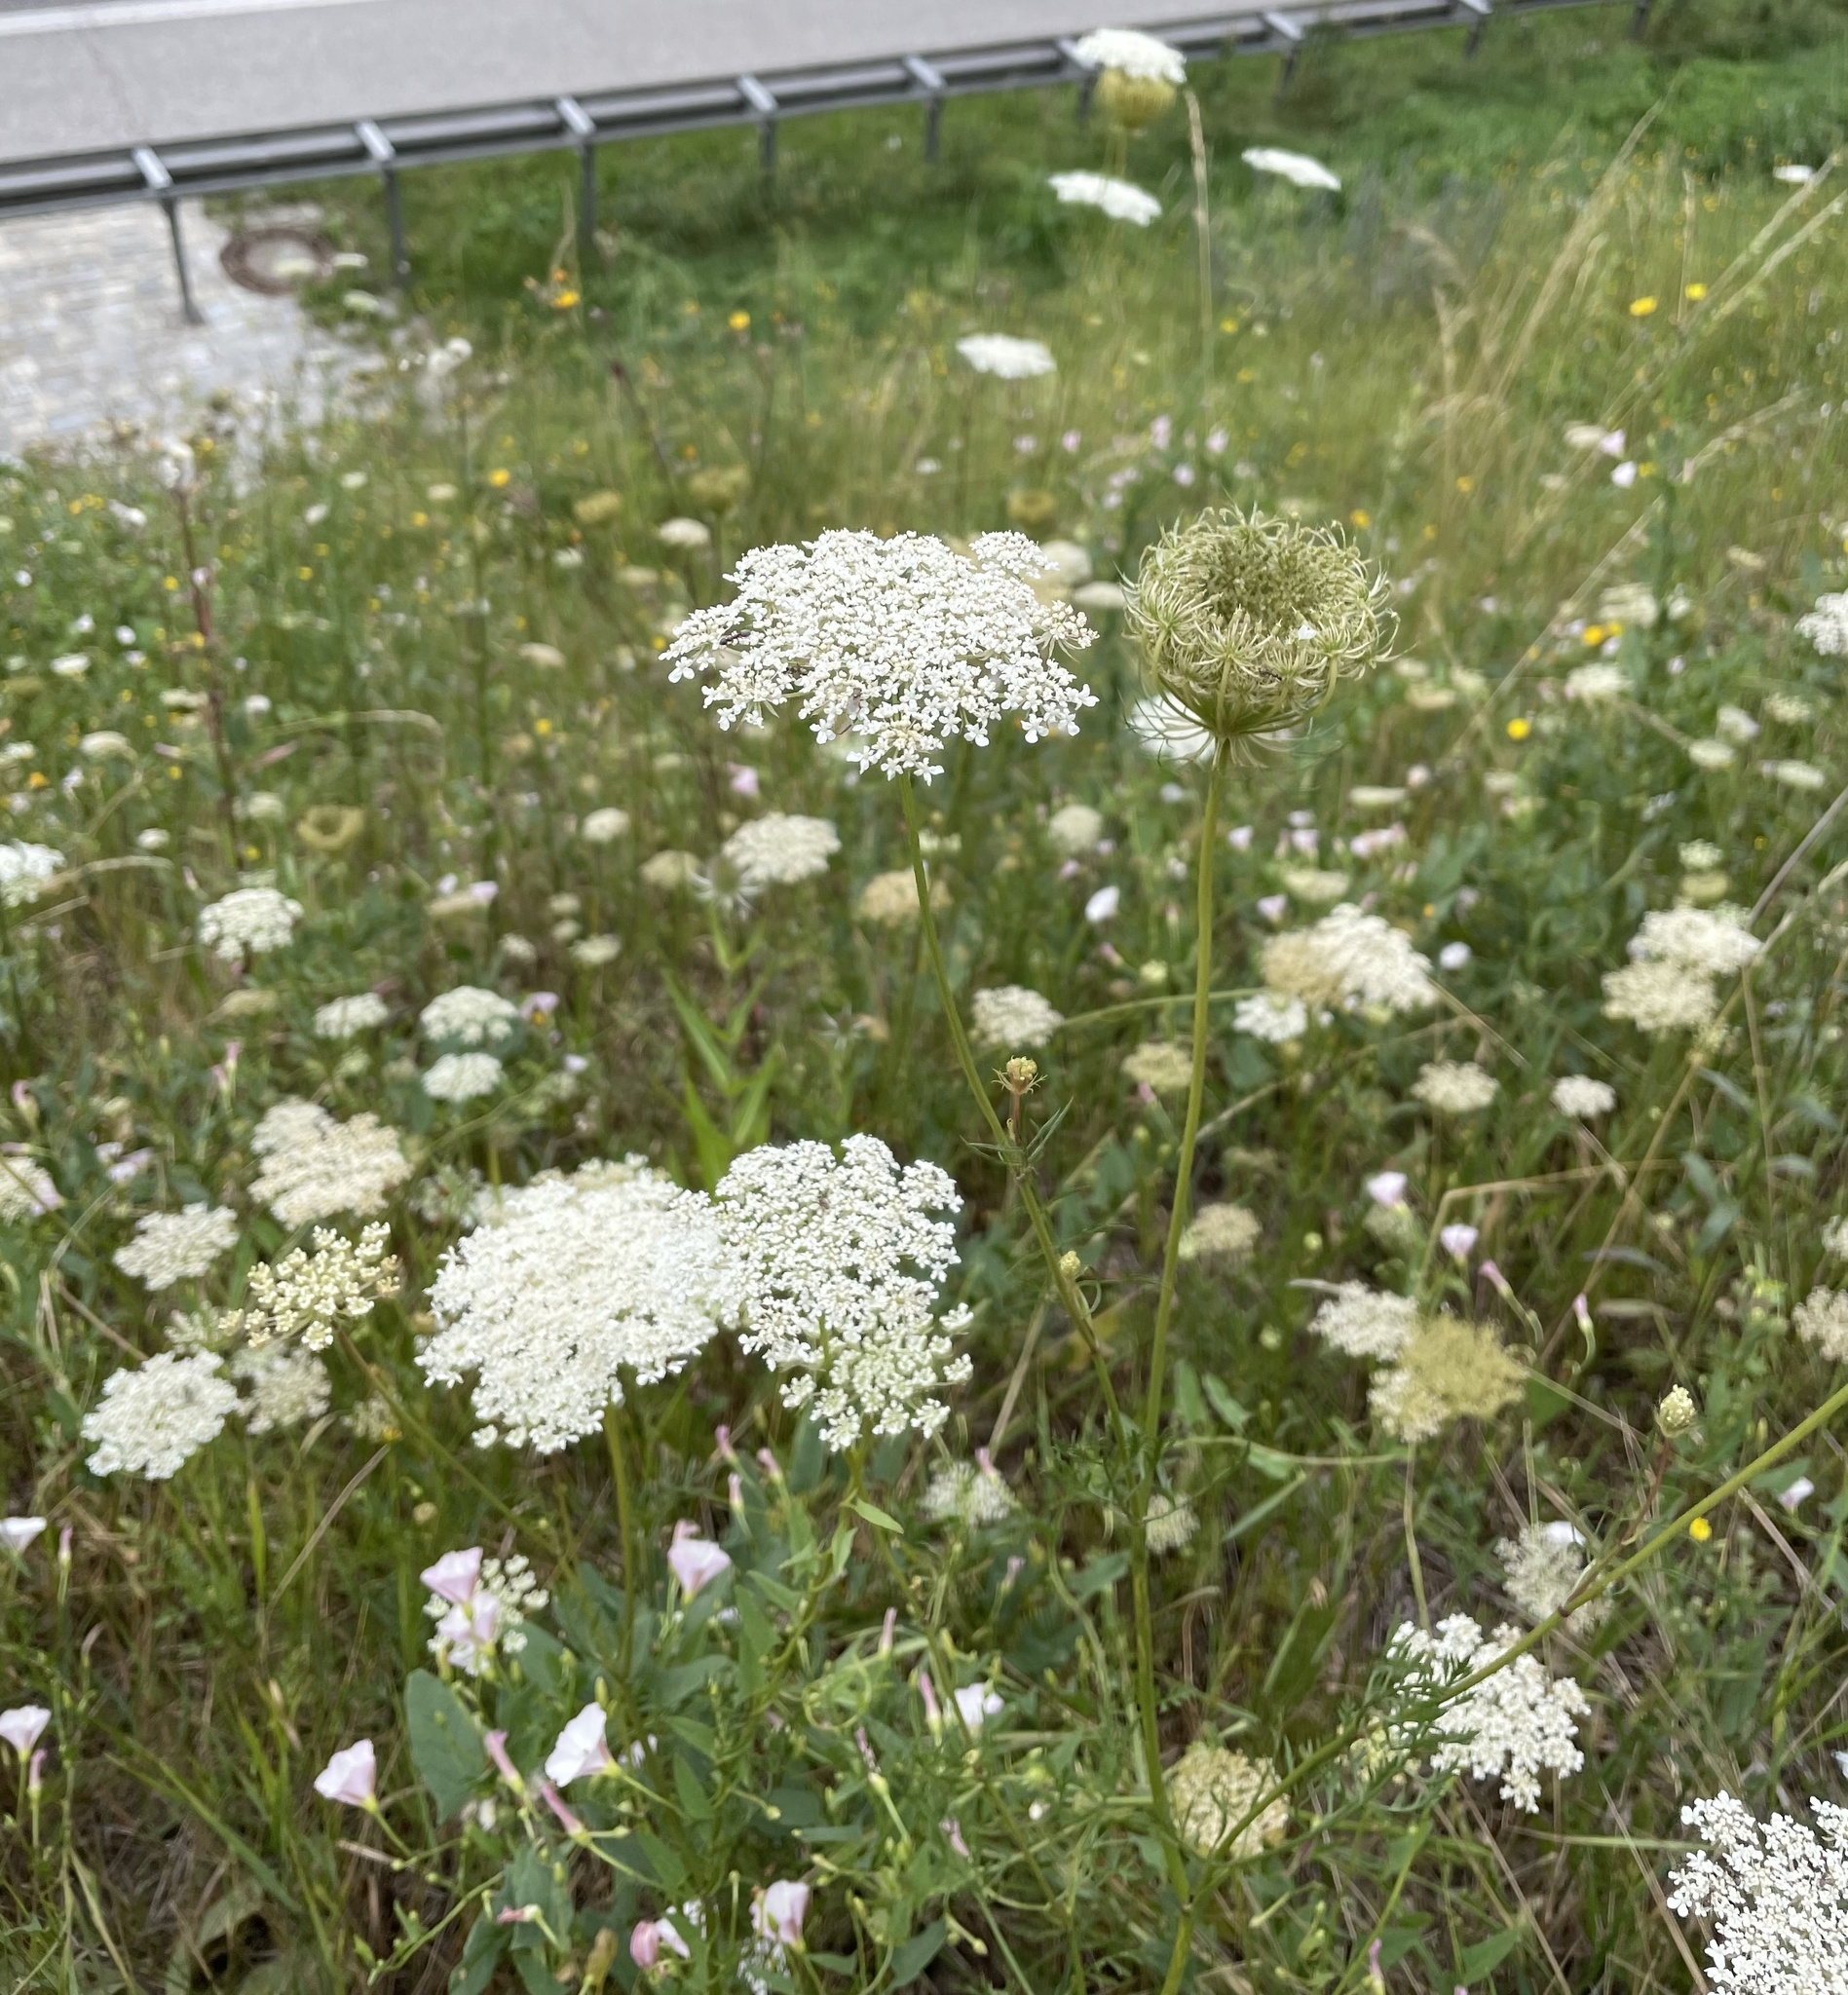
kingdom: Plantae
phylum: Tracheophyta
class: Magnoliopsida
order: Apiales
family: Apiaceae
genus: Daucus
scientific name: Daucus carota
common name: Wild carrot
